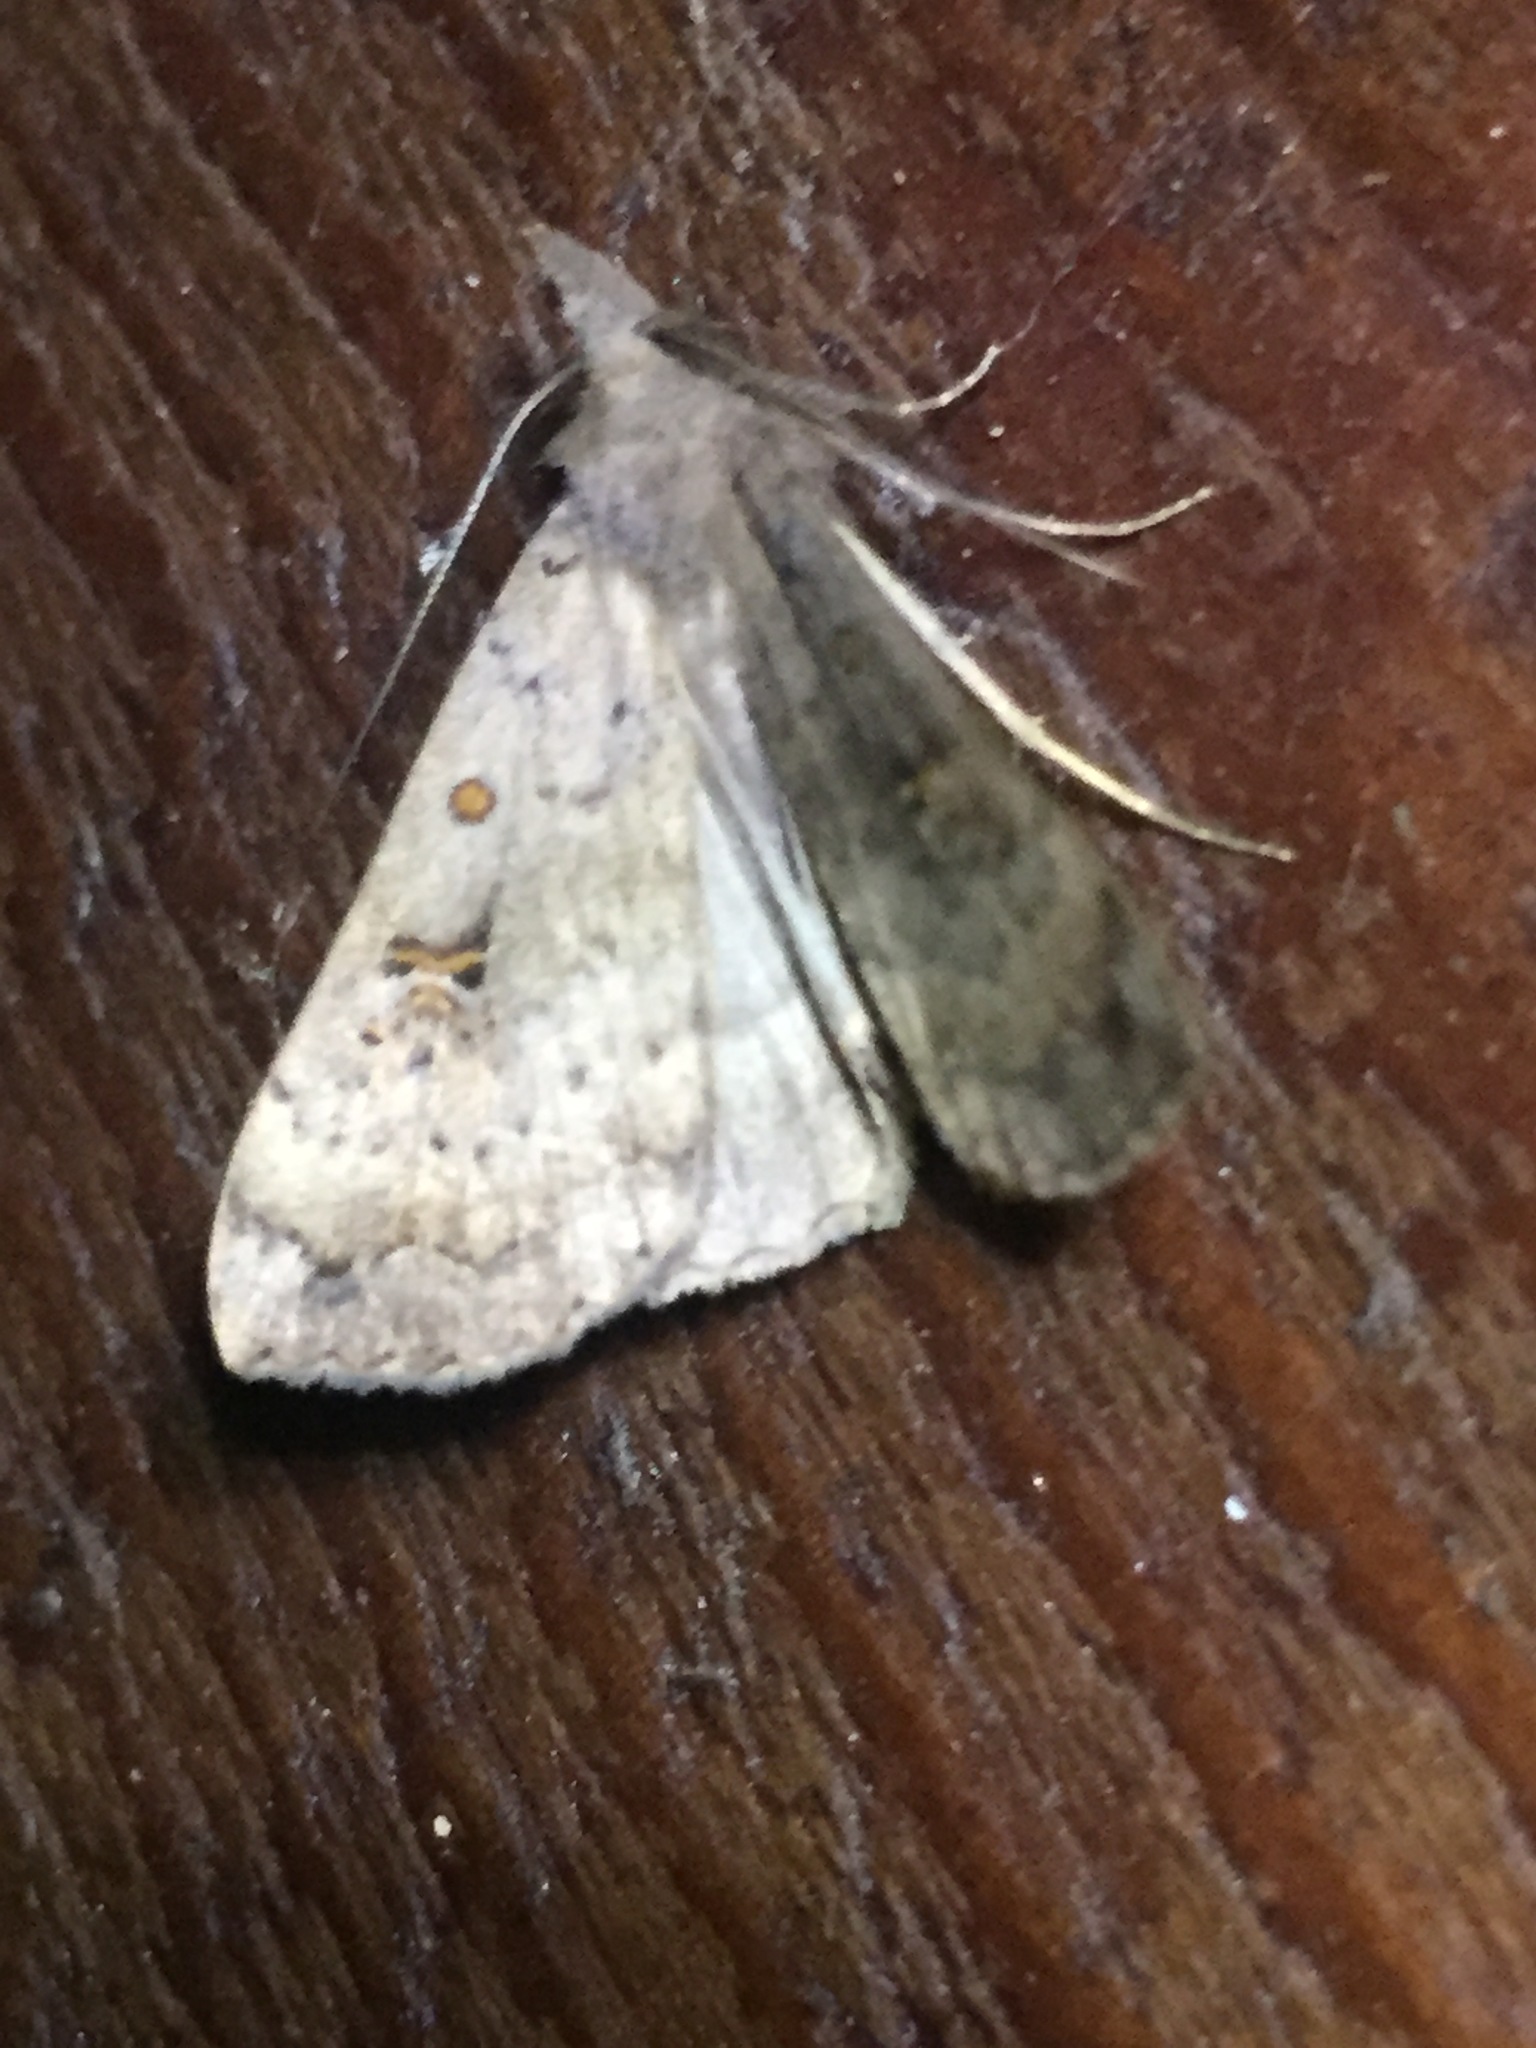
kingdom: Animalia
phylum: Arthropoda
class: Insecta
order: Lepidoptera
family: Erebidae
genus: Rhapsa
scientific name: Rhapsa scotosialis
